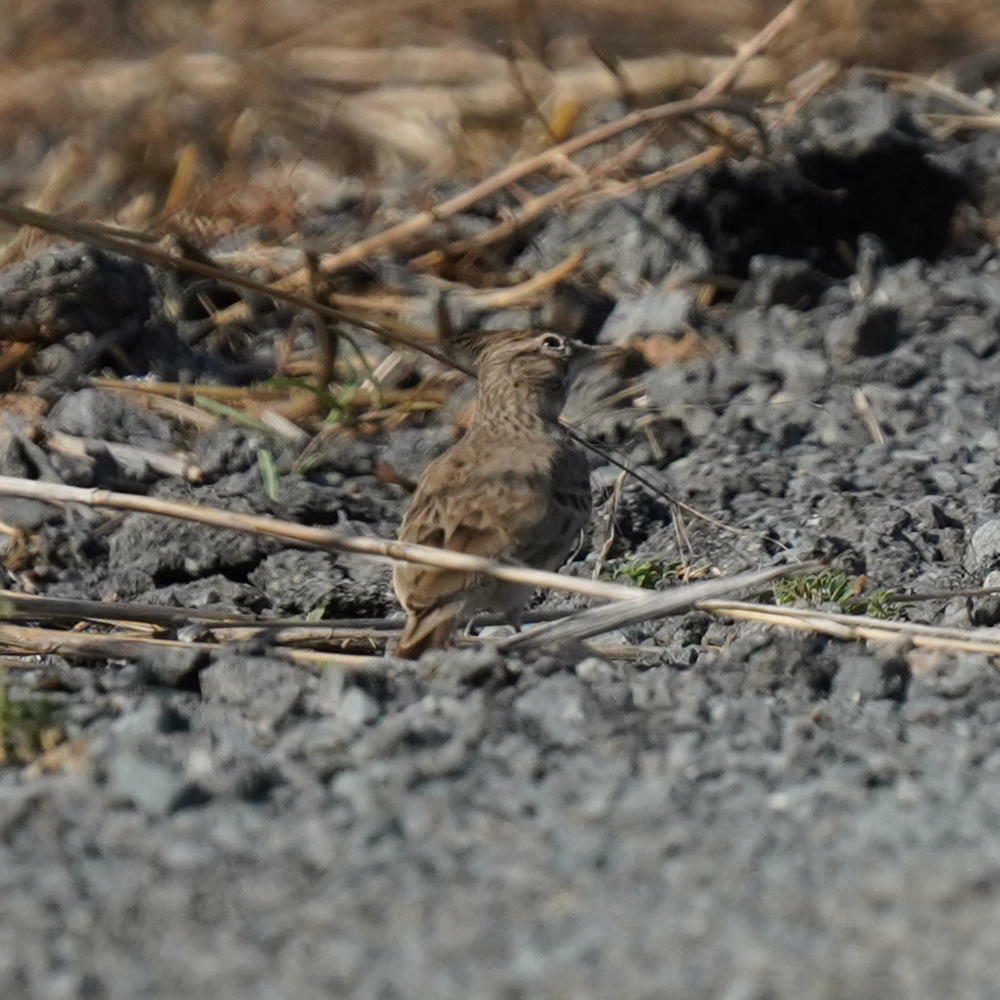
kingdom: Animalia
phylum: Chordata
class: Aves
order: Passeriformes
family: Alaudidae
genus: Galerida
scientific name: Galerida cristata
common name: Crested lark
